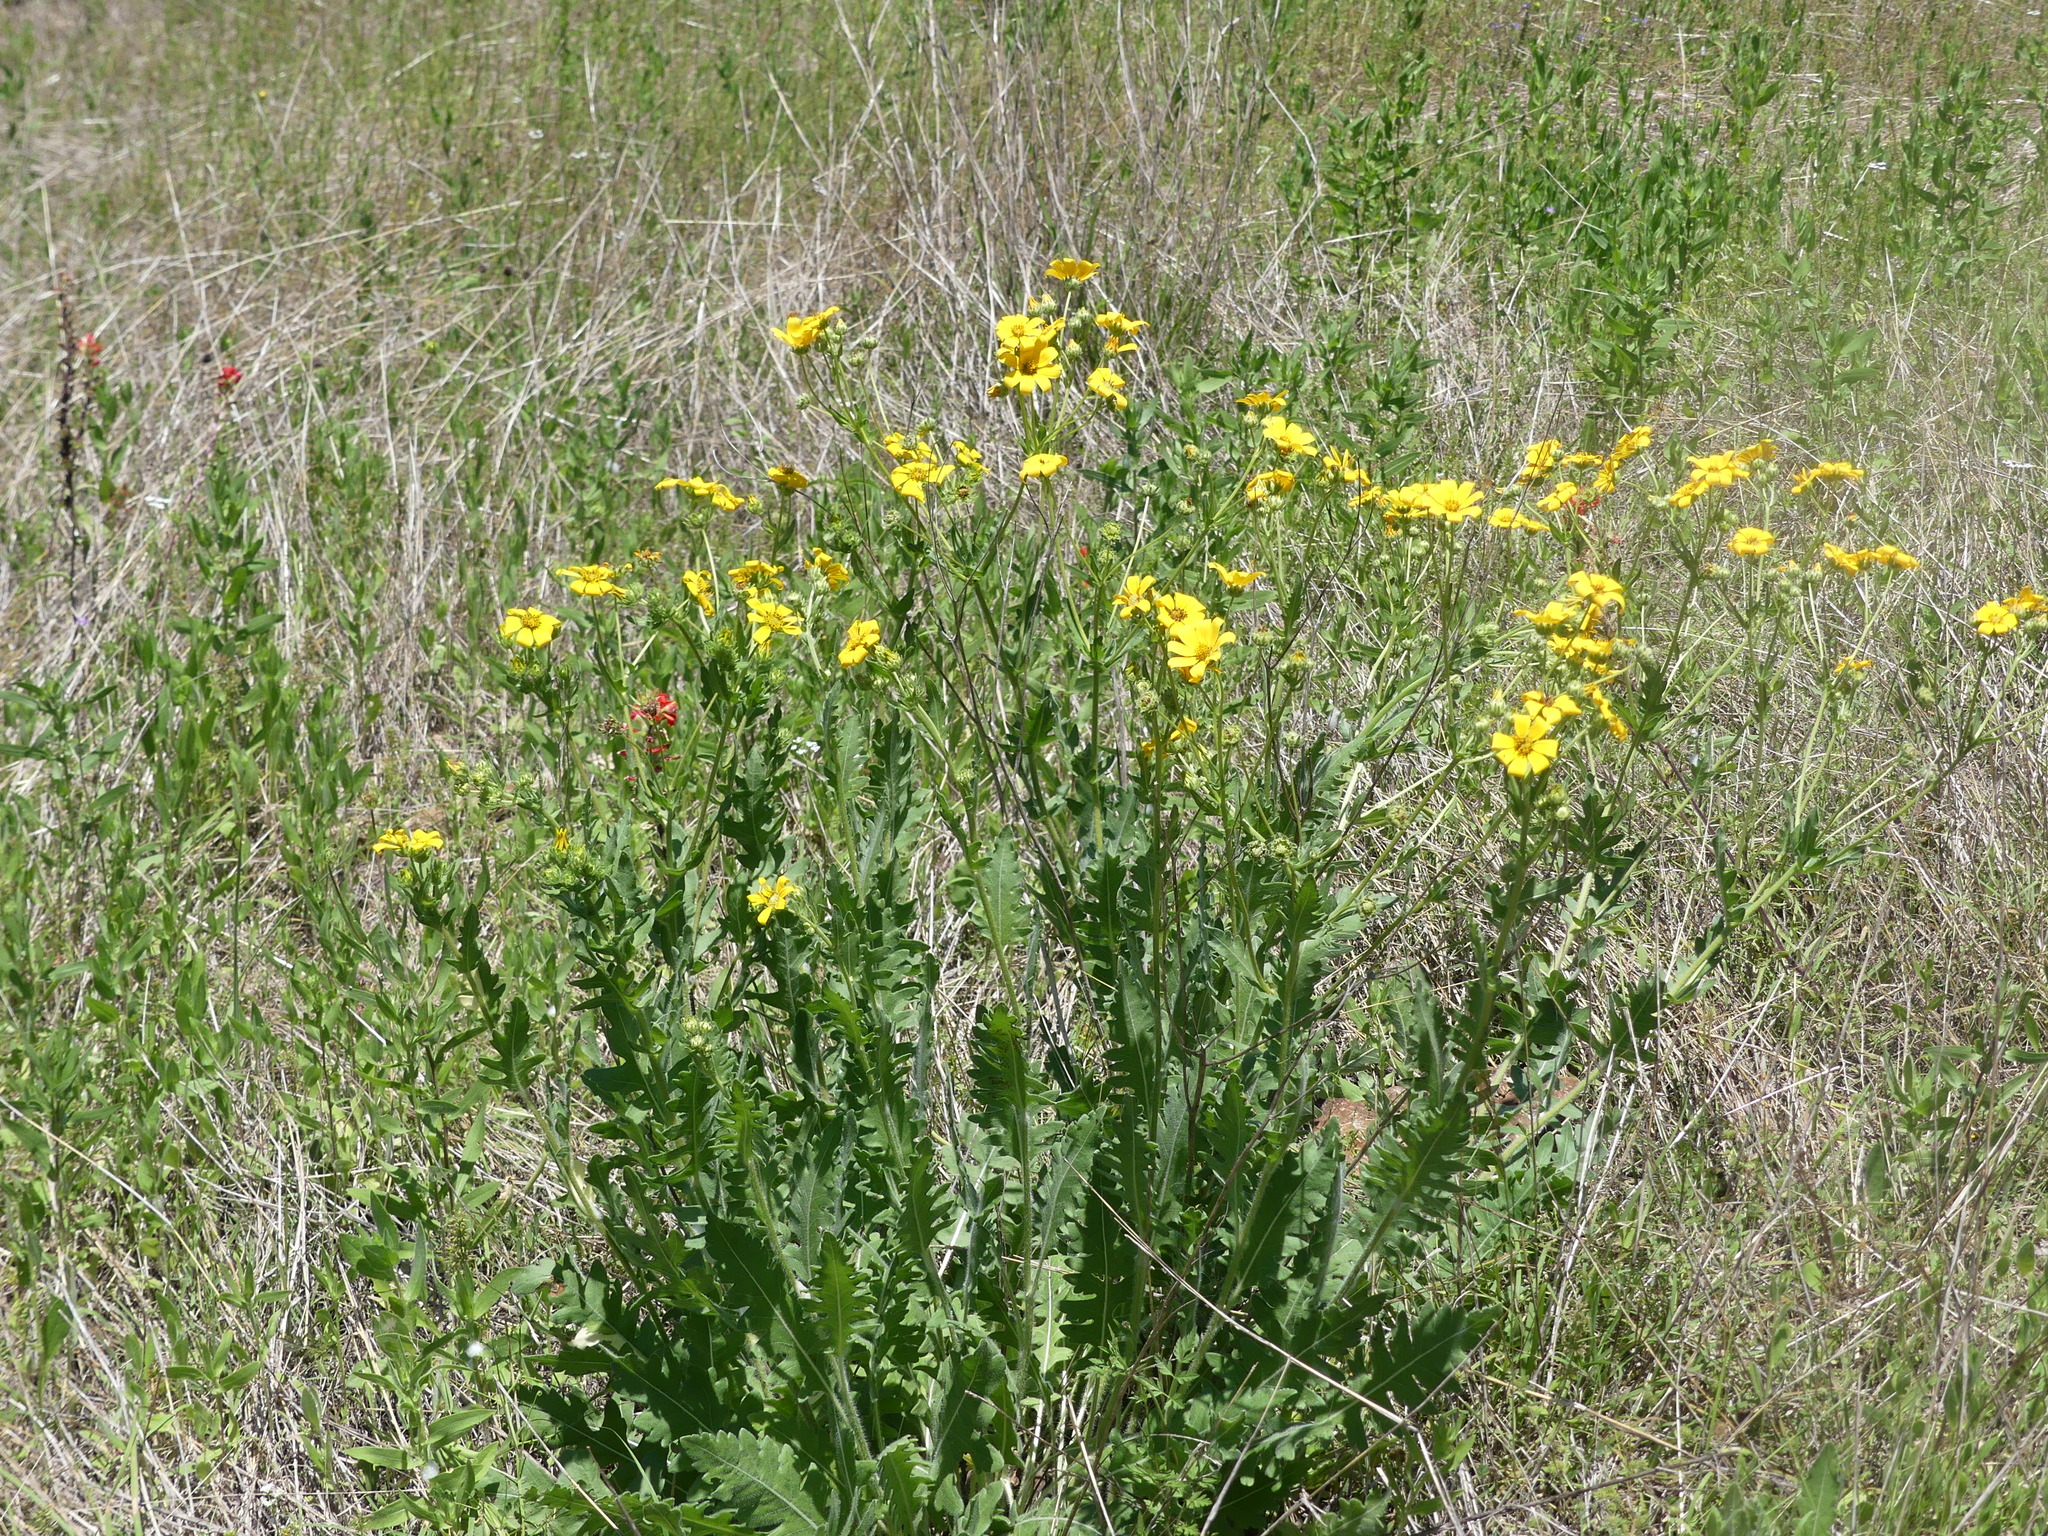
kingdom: Plantae
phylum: Tracheophyta
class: Magnoliopsida
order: Asterales
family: Asteraceae
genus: Engelmannia
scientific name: Engelmannia peristenia
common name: Engelmann's daisy
